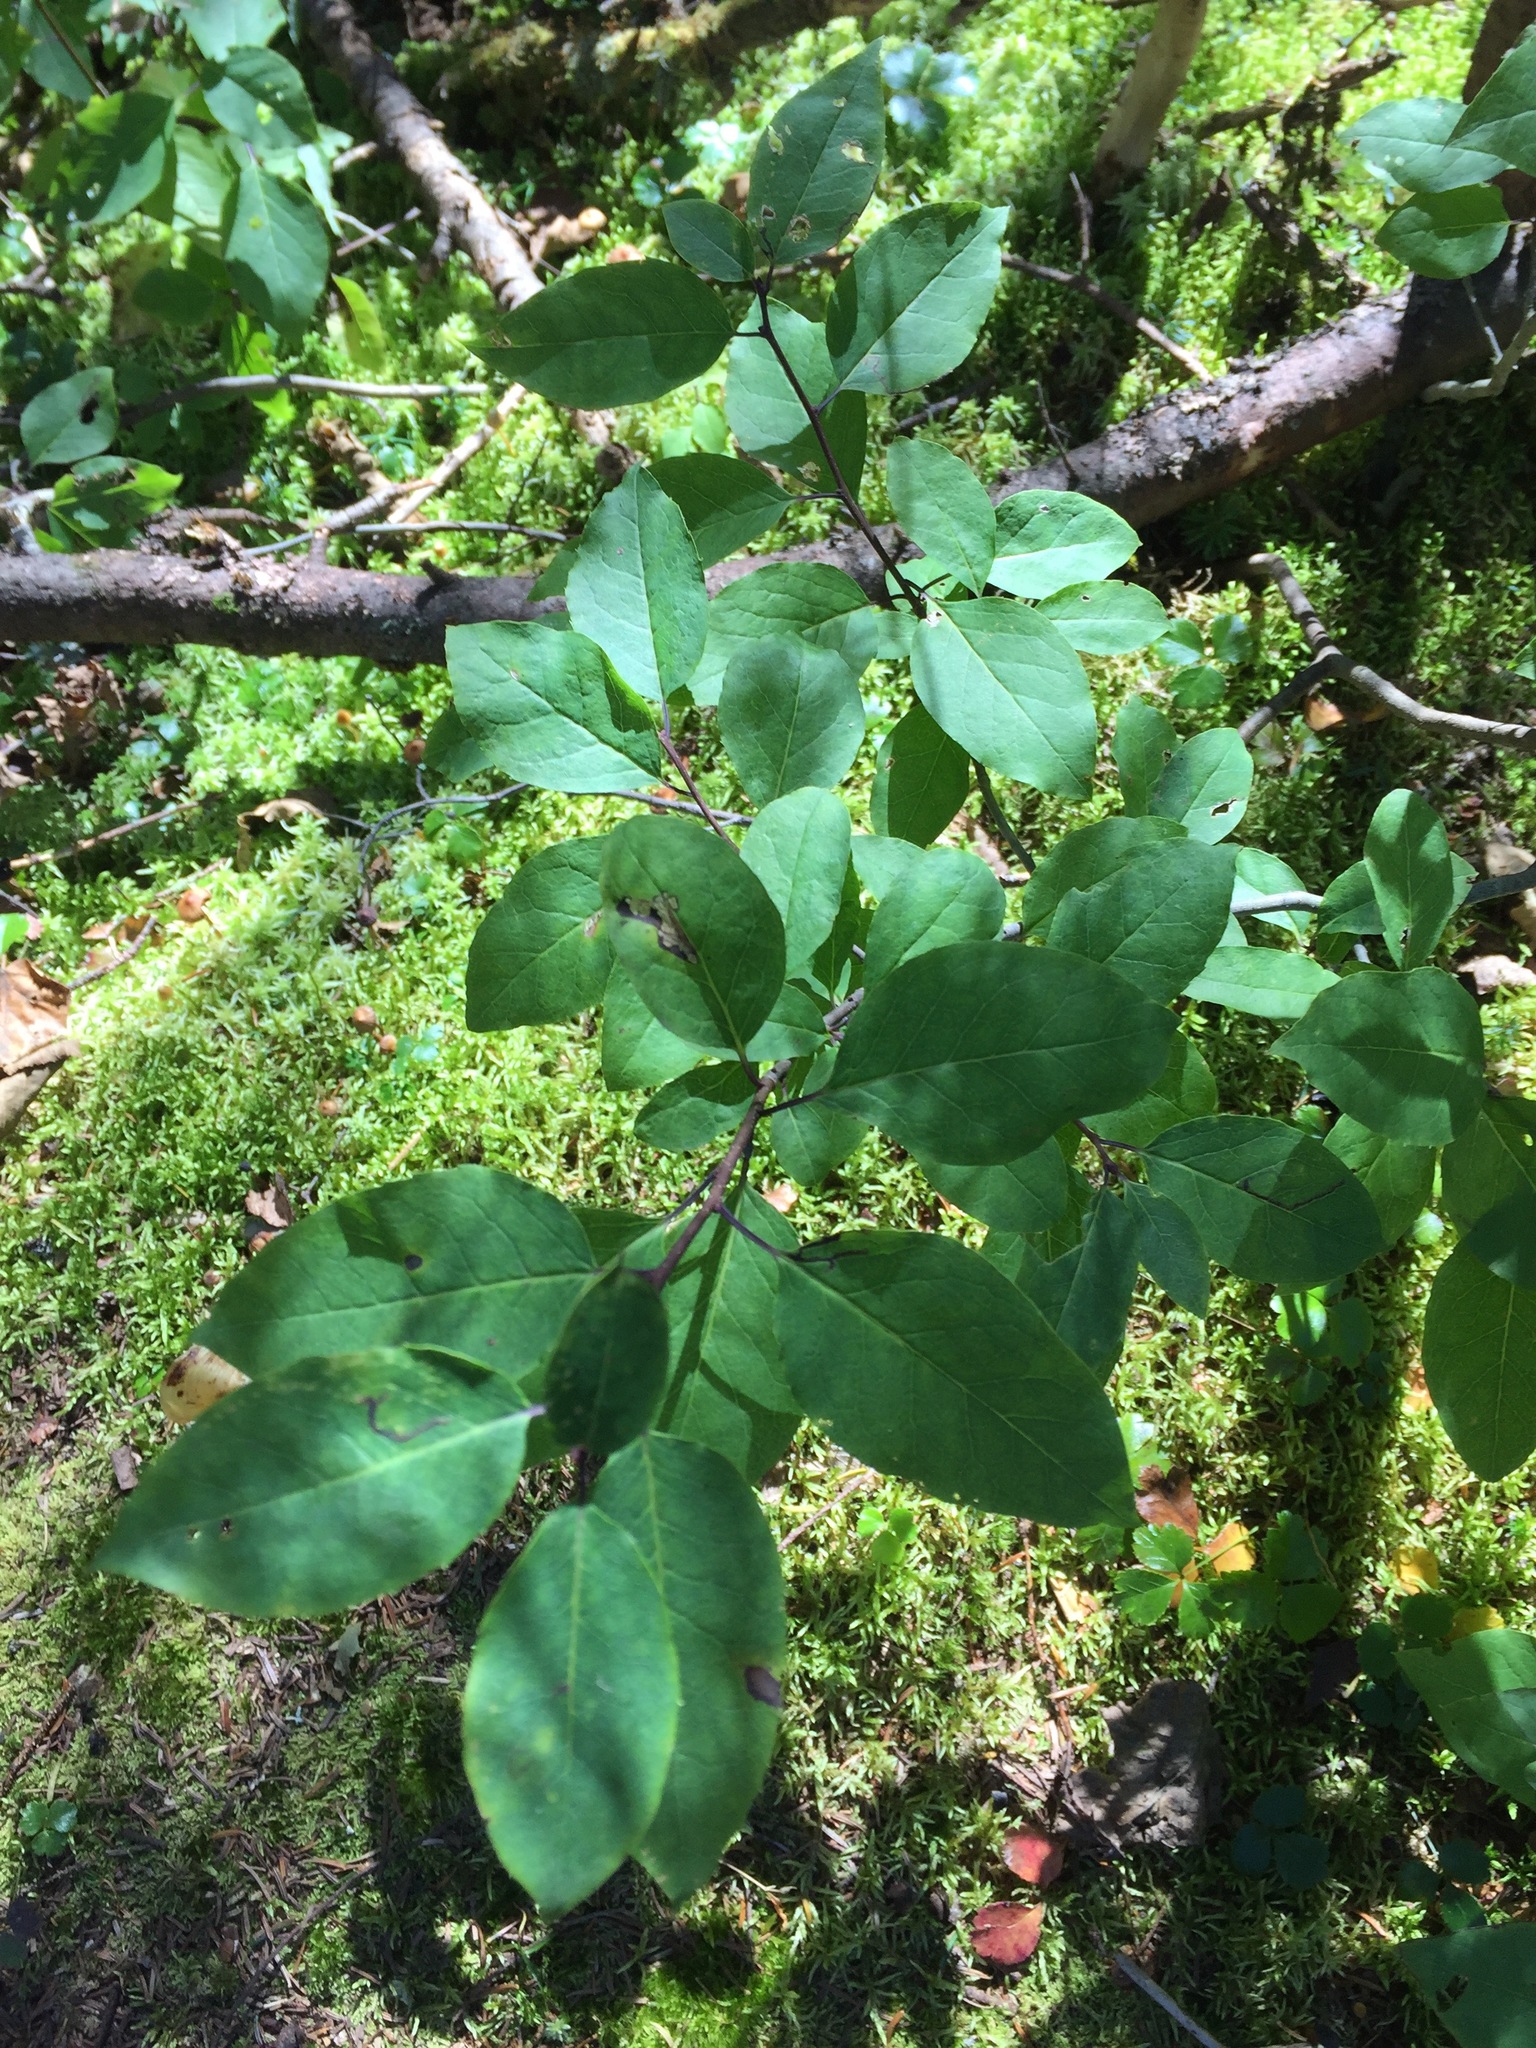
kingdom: Plantae
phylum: Tracheophyta
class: Magnoliopsida
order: Aquifoliales
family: Aquifoliaceae
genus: Ilex
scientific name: Ilex mucronata
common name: Catberry
